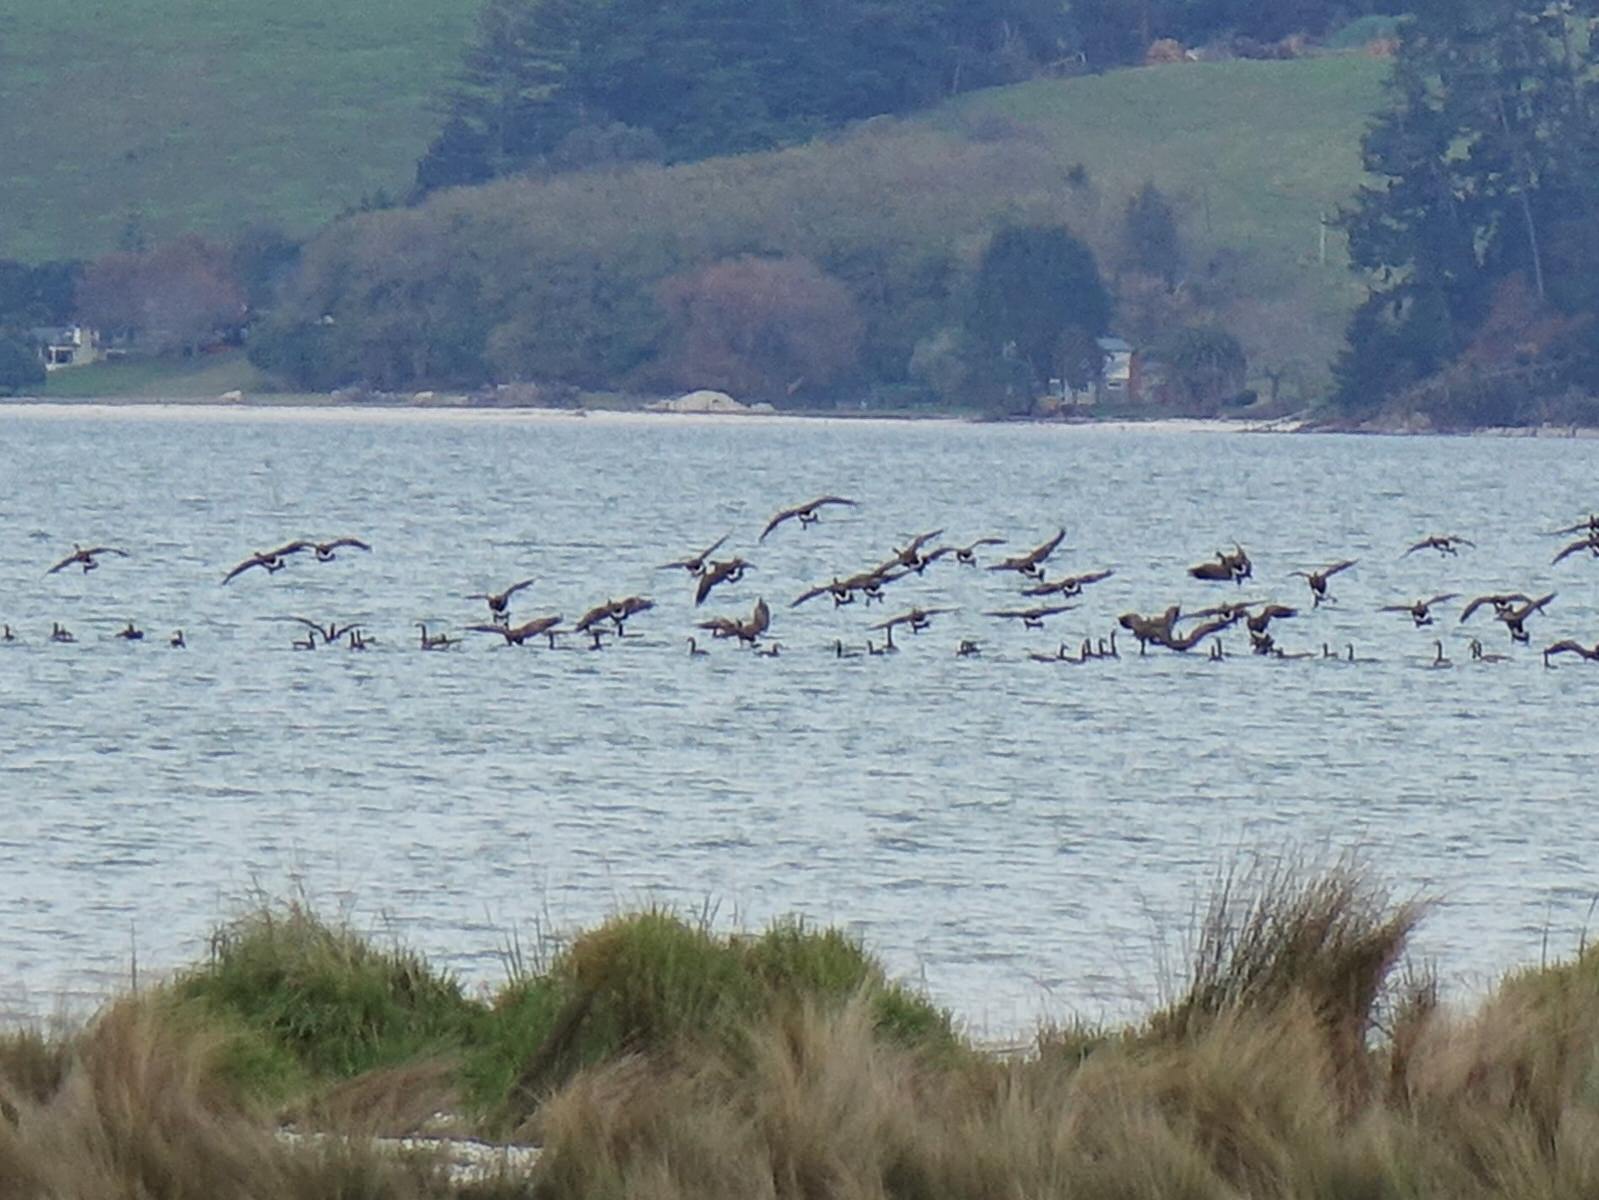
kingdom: Animalia
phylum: Chordata
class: Aves
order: Anseriformes
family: Anatidae
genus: Branta
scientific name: Branta canadensis
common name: Canada goose
